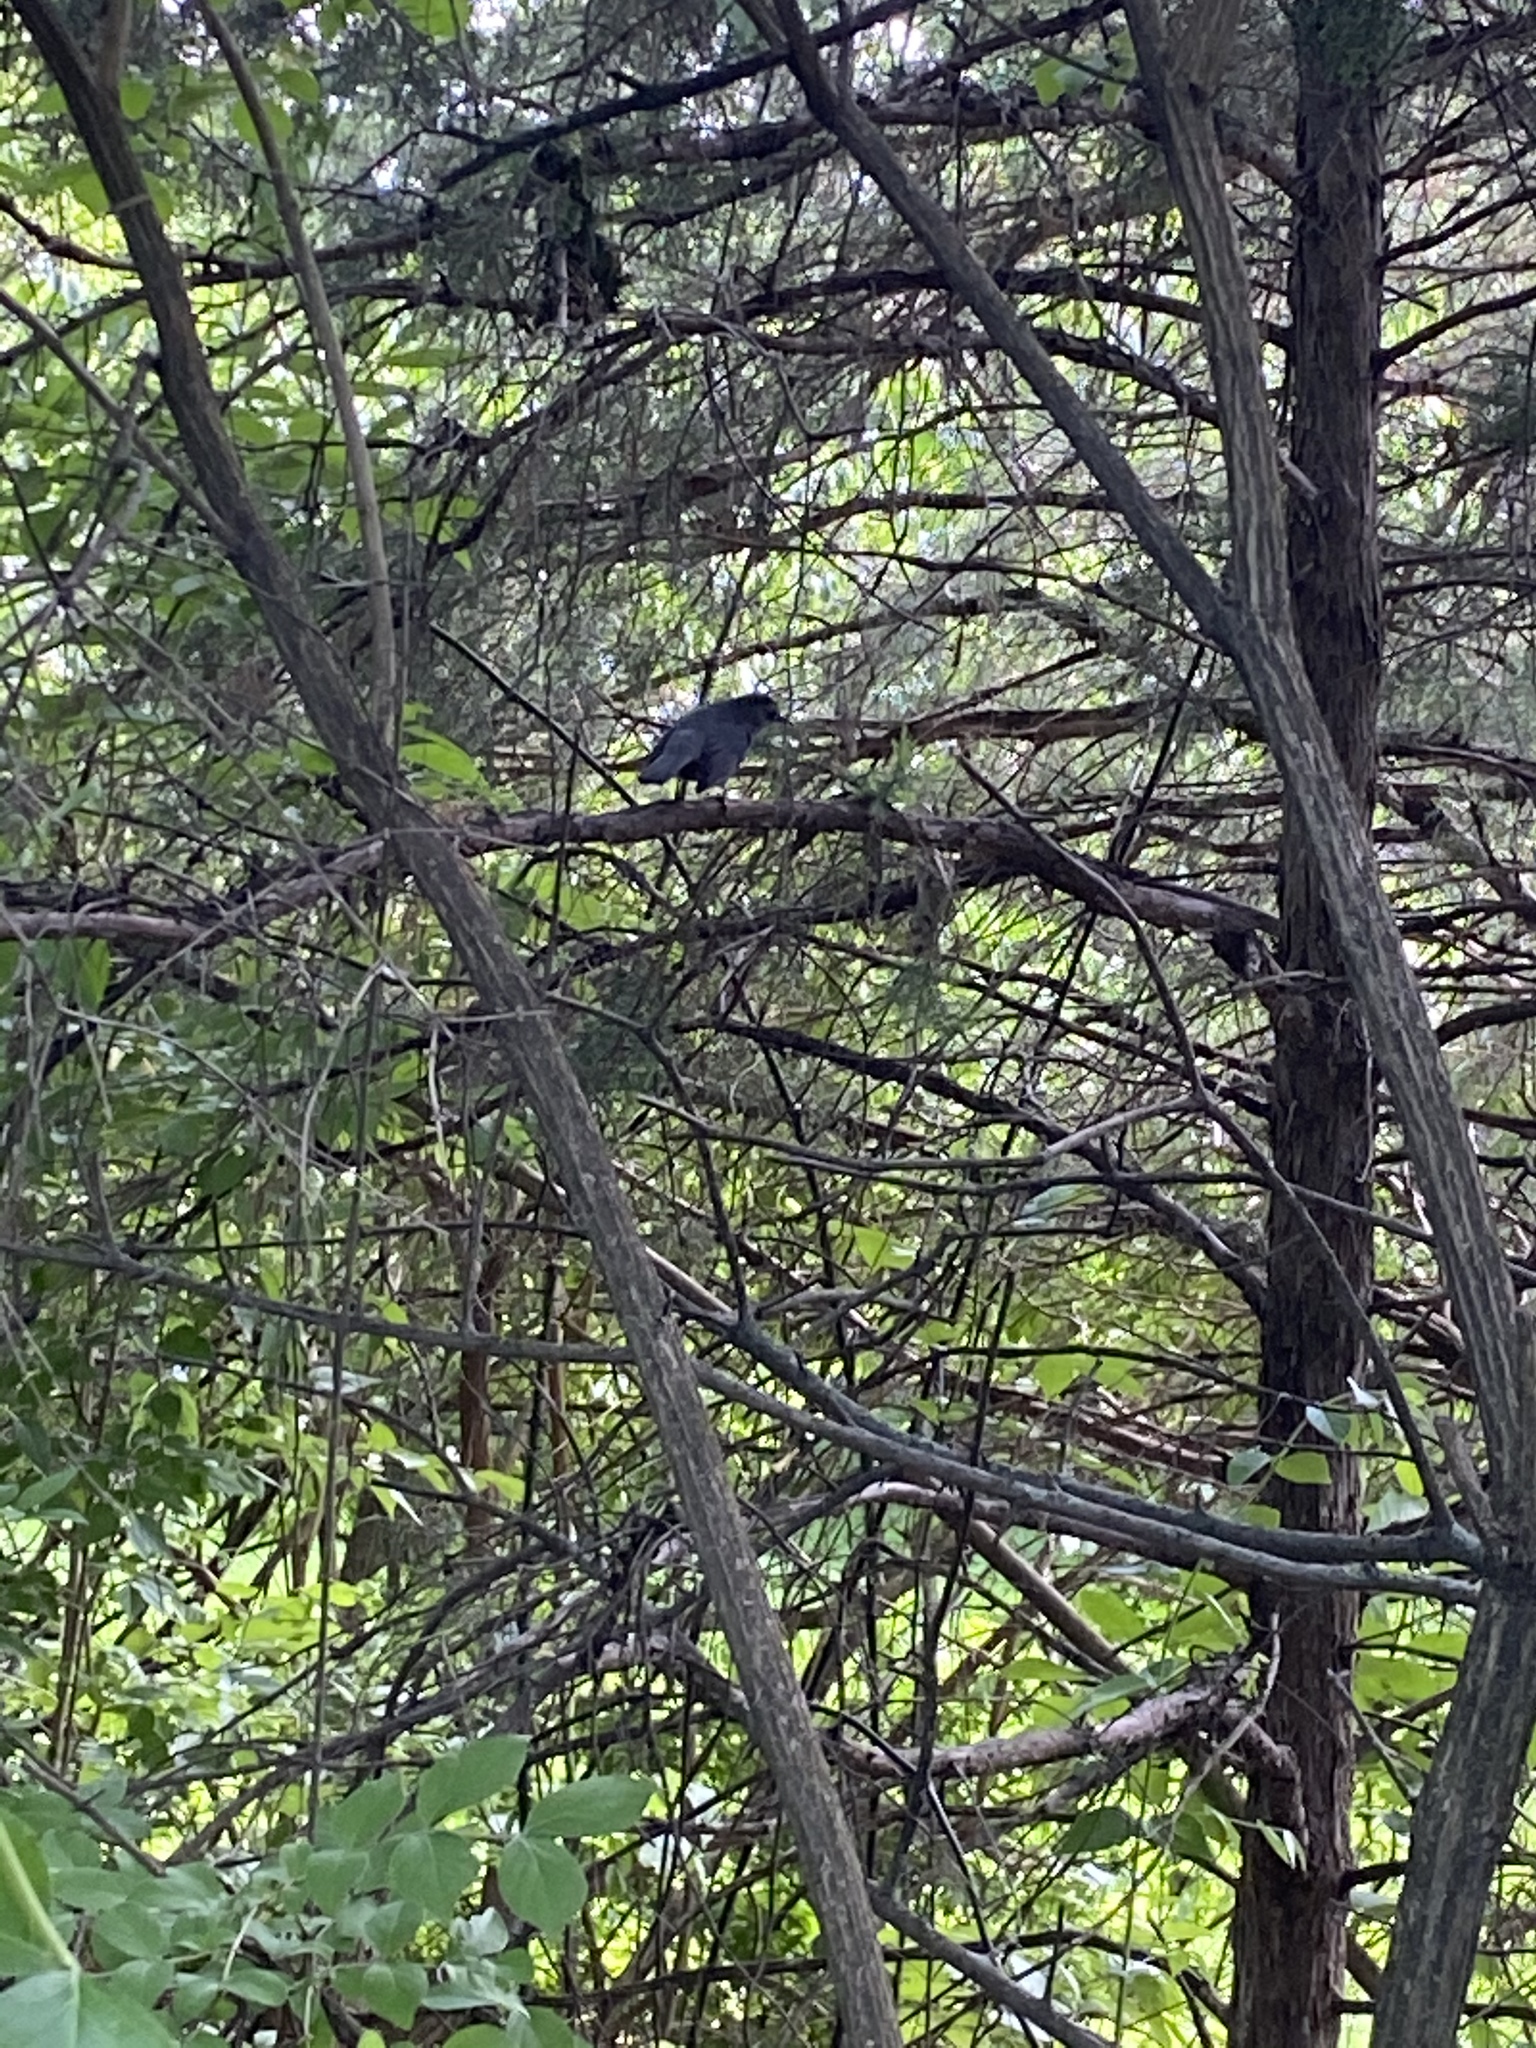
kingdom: Animalia
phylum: Chordata
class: Aves
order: Passeriformes
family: Mimidae
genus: Dumetella
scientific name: Dumetella carolinensis
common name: Gray catbird
